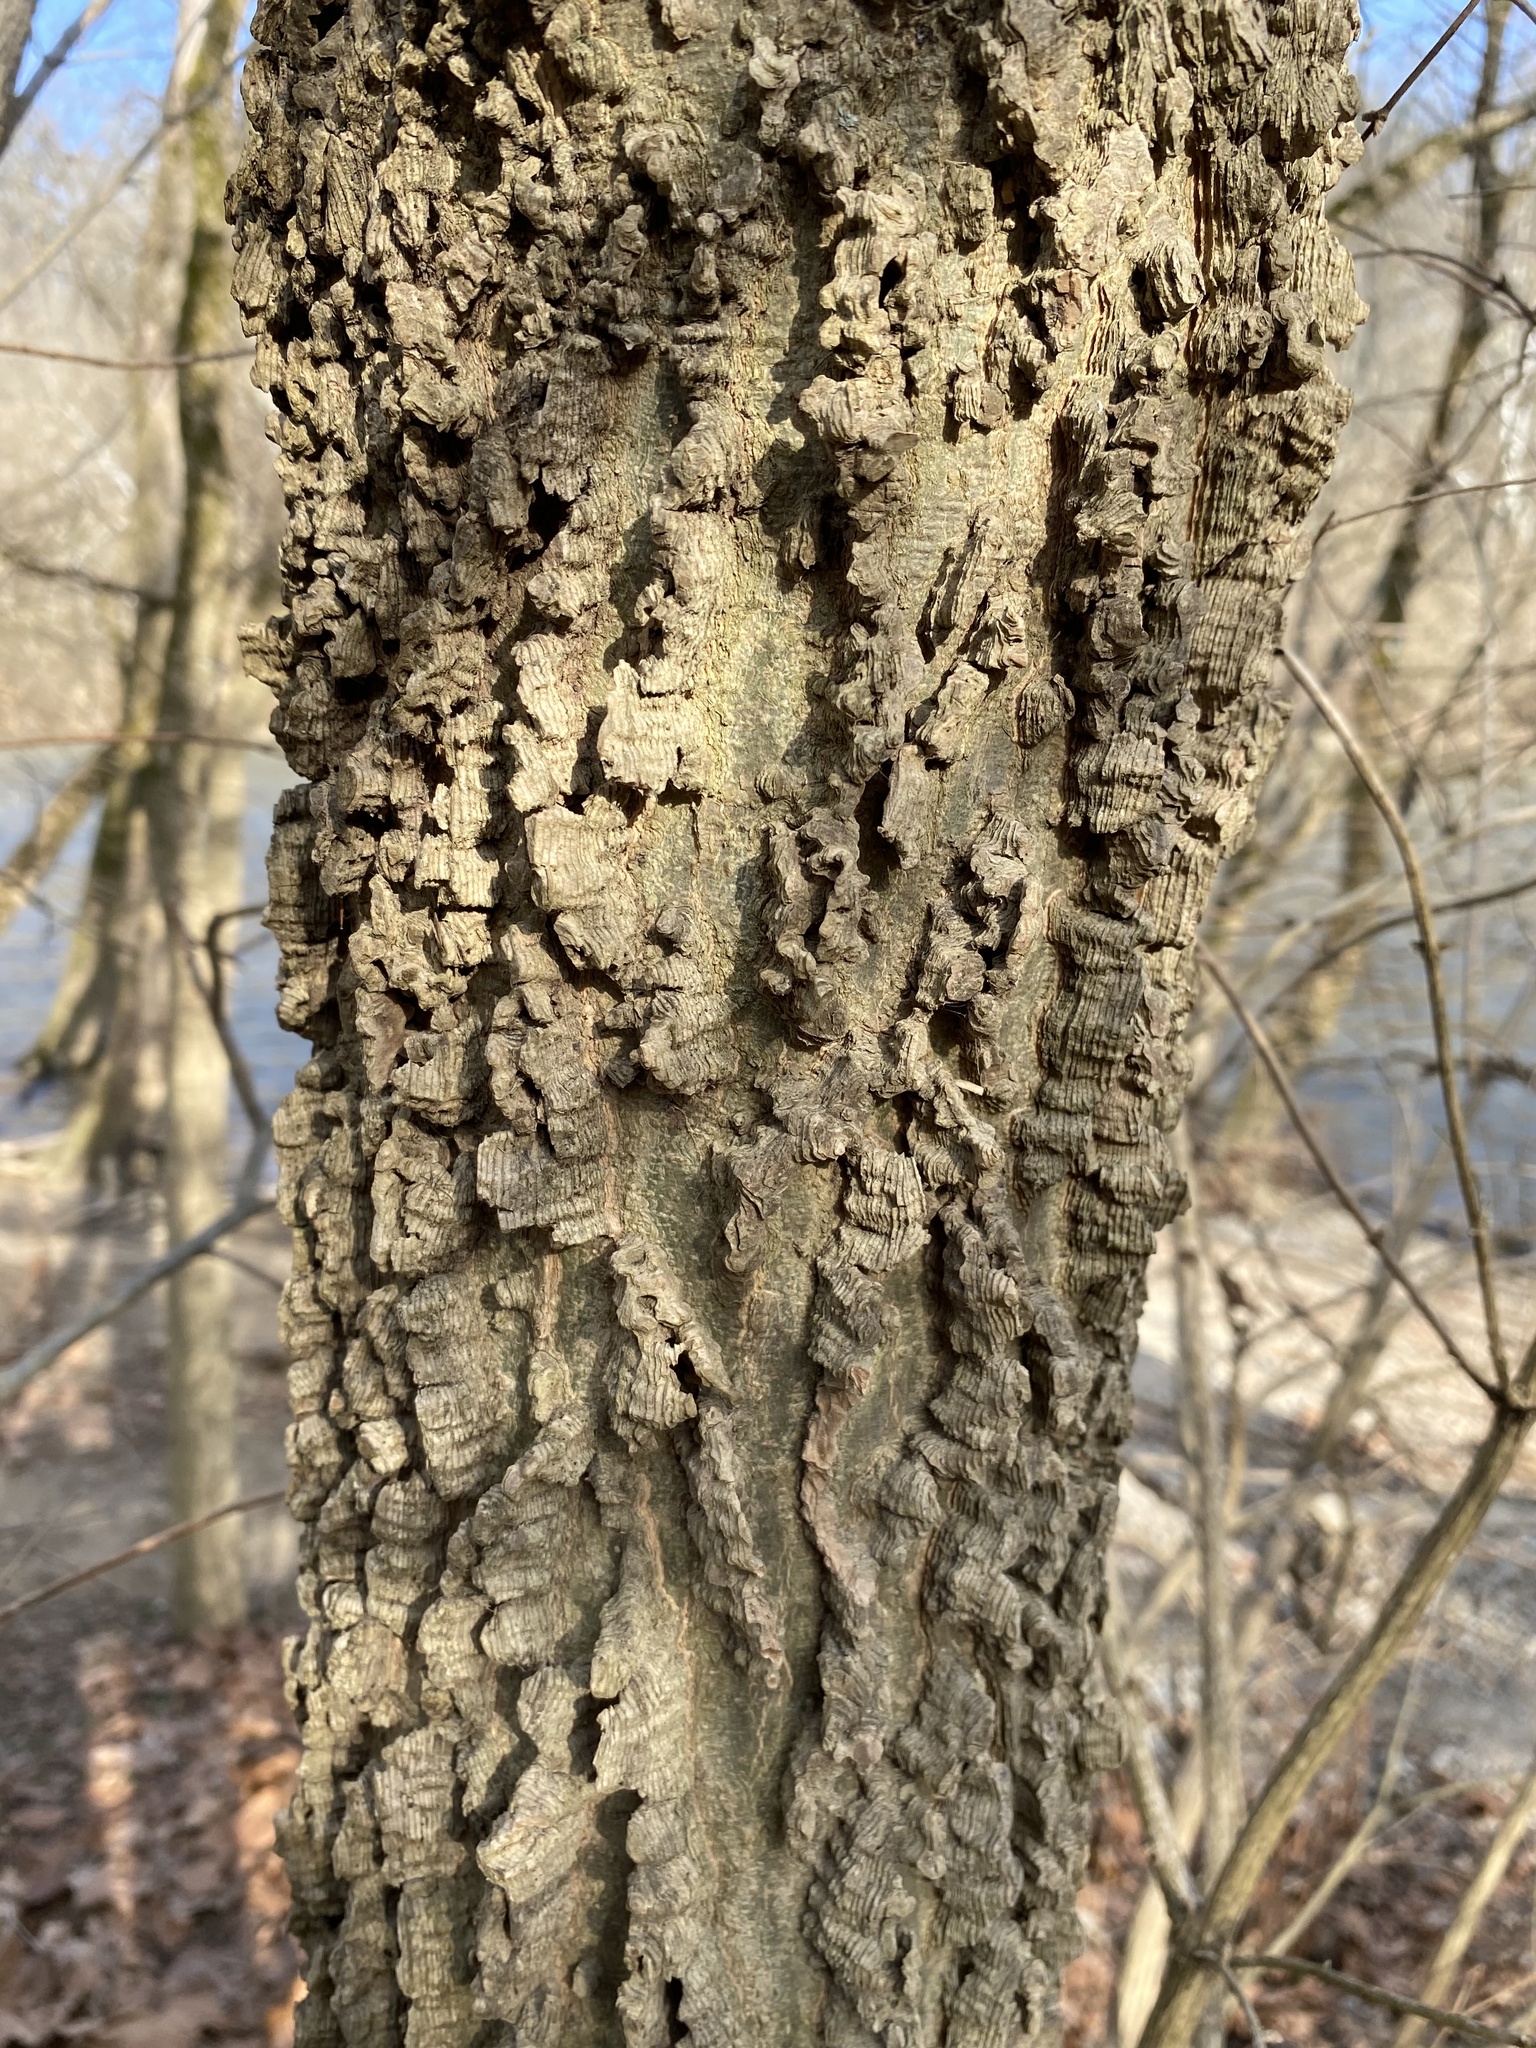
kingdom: Plantae
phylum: Tracheophyta
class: Magnoliopsida
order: Rosales
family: Cannabaceae
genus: Celtis
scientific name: Celtis occidentalis
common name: Common hackberry
